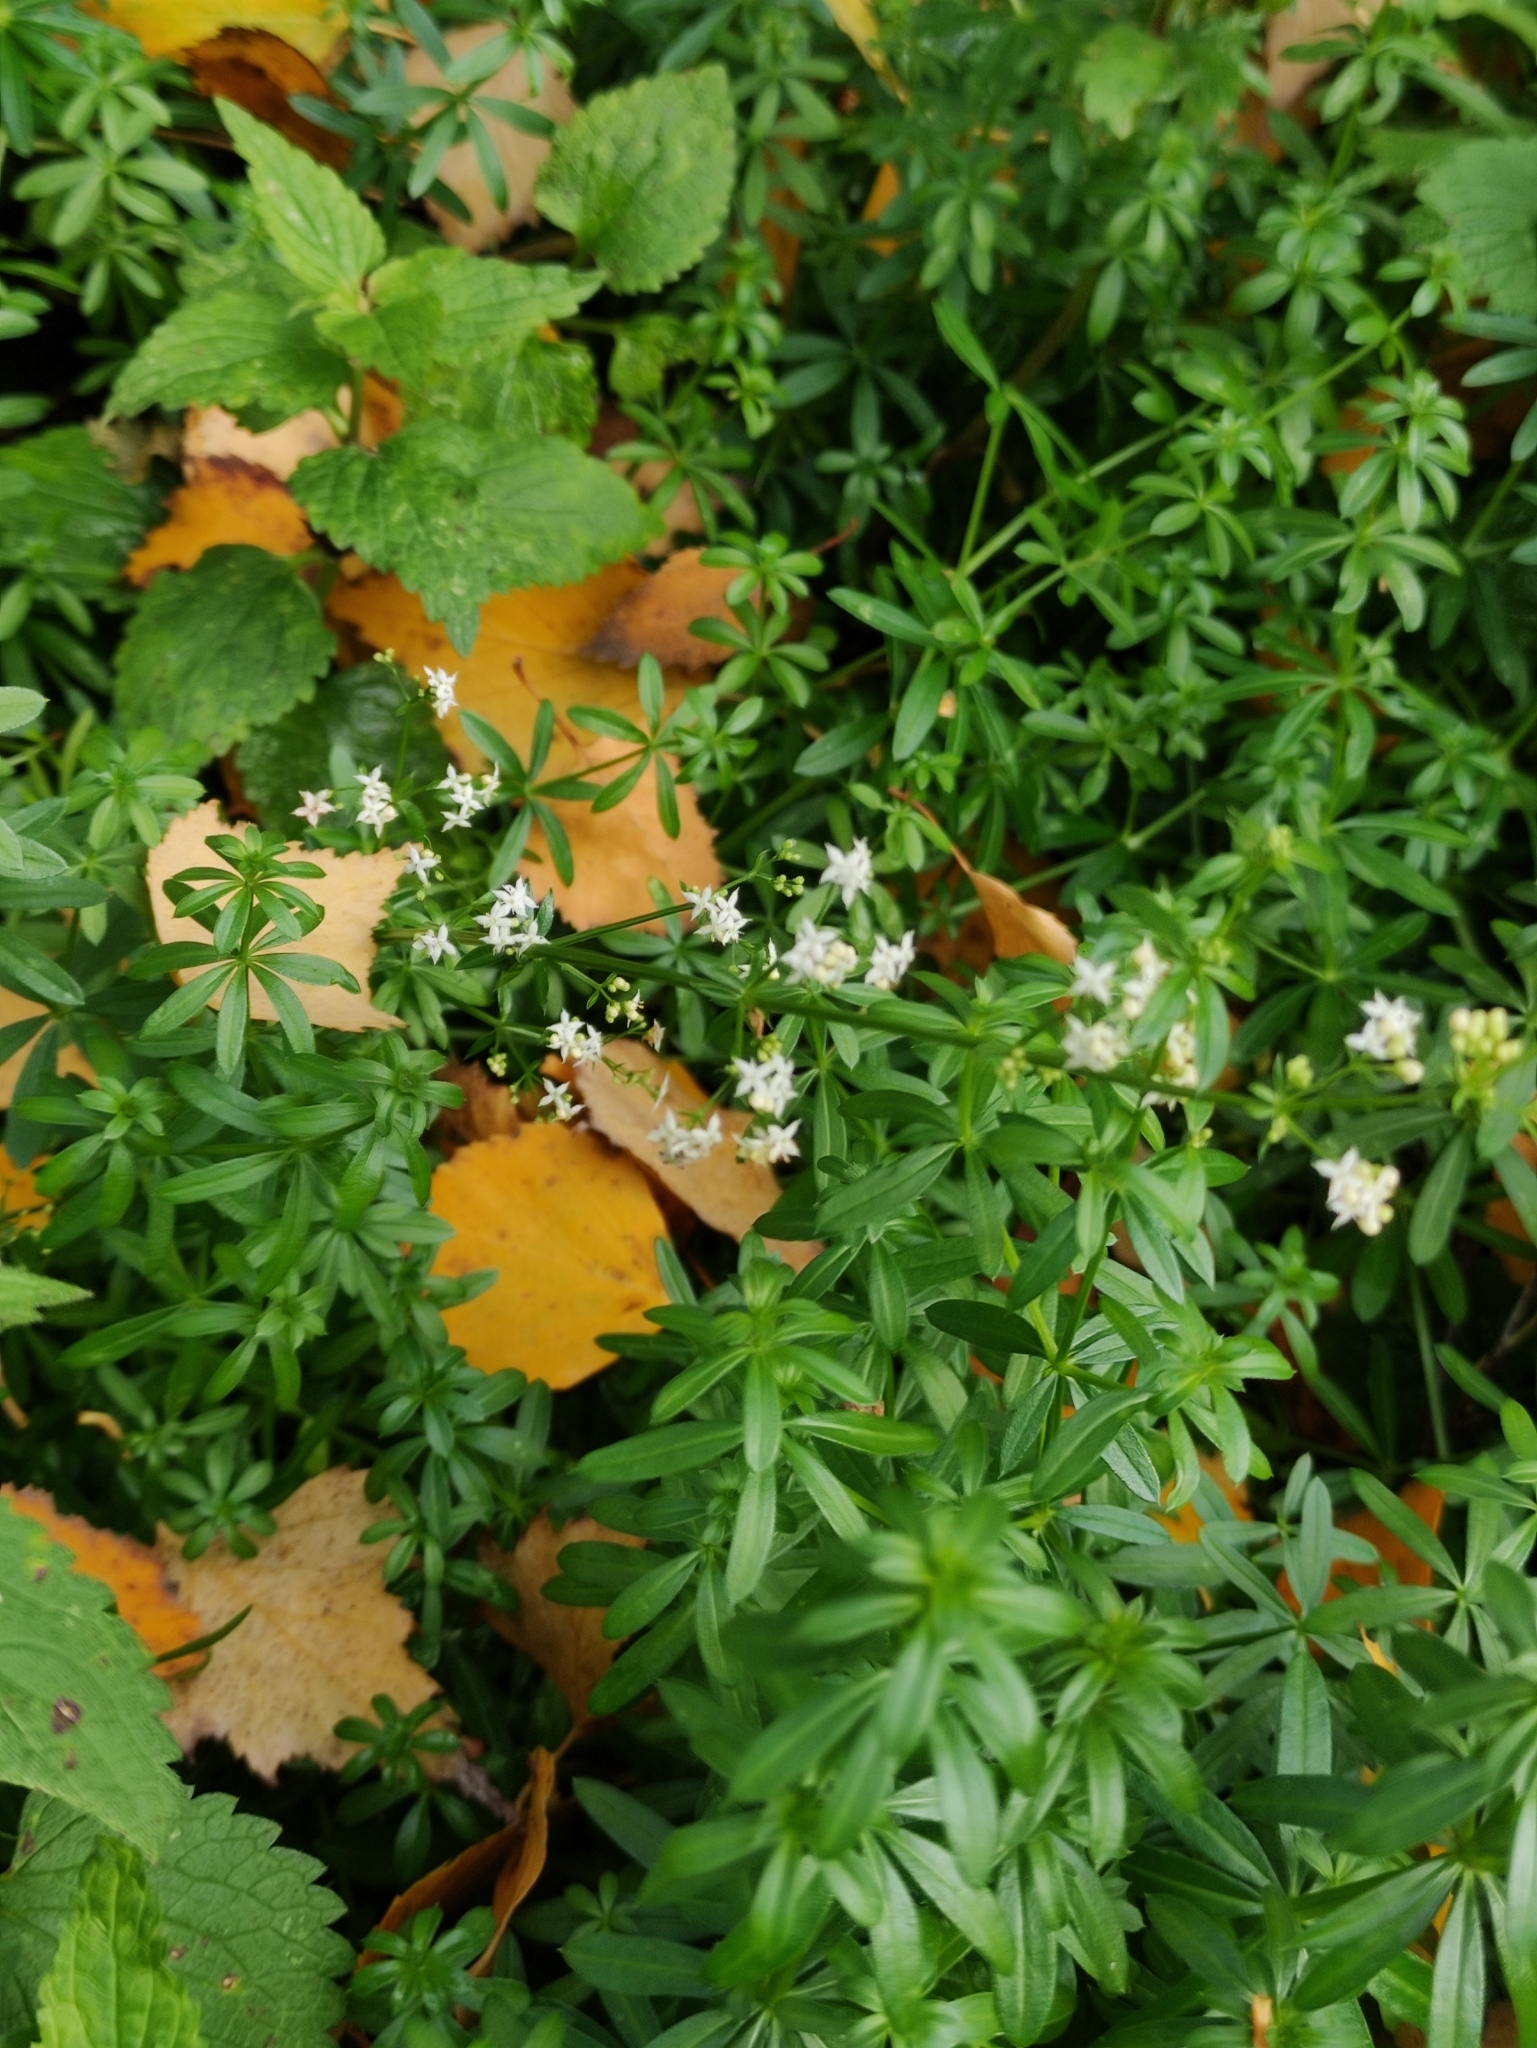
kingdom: Plantae
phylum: Tracheophyta
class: Magnoliopsida
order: Gentianales
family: Rubiaceae
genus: Galium
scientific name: Galium mollugo
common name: Hedge bedstraw
